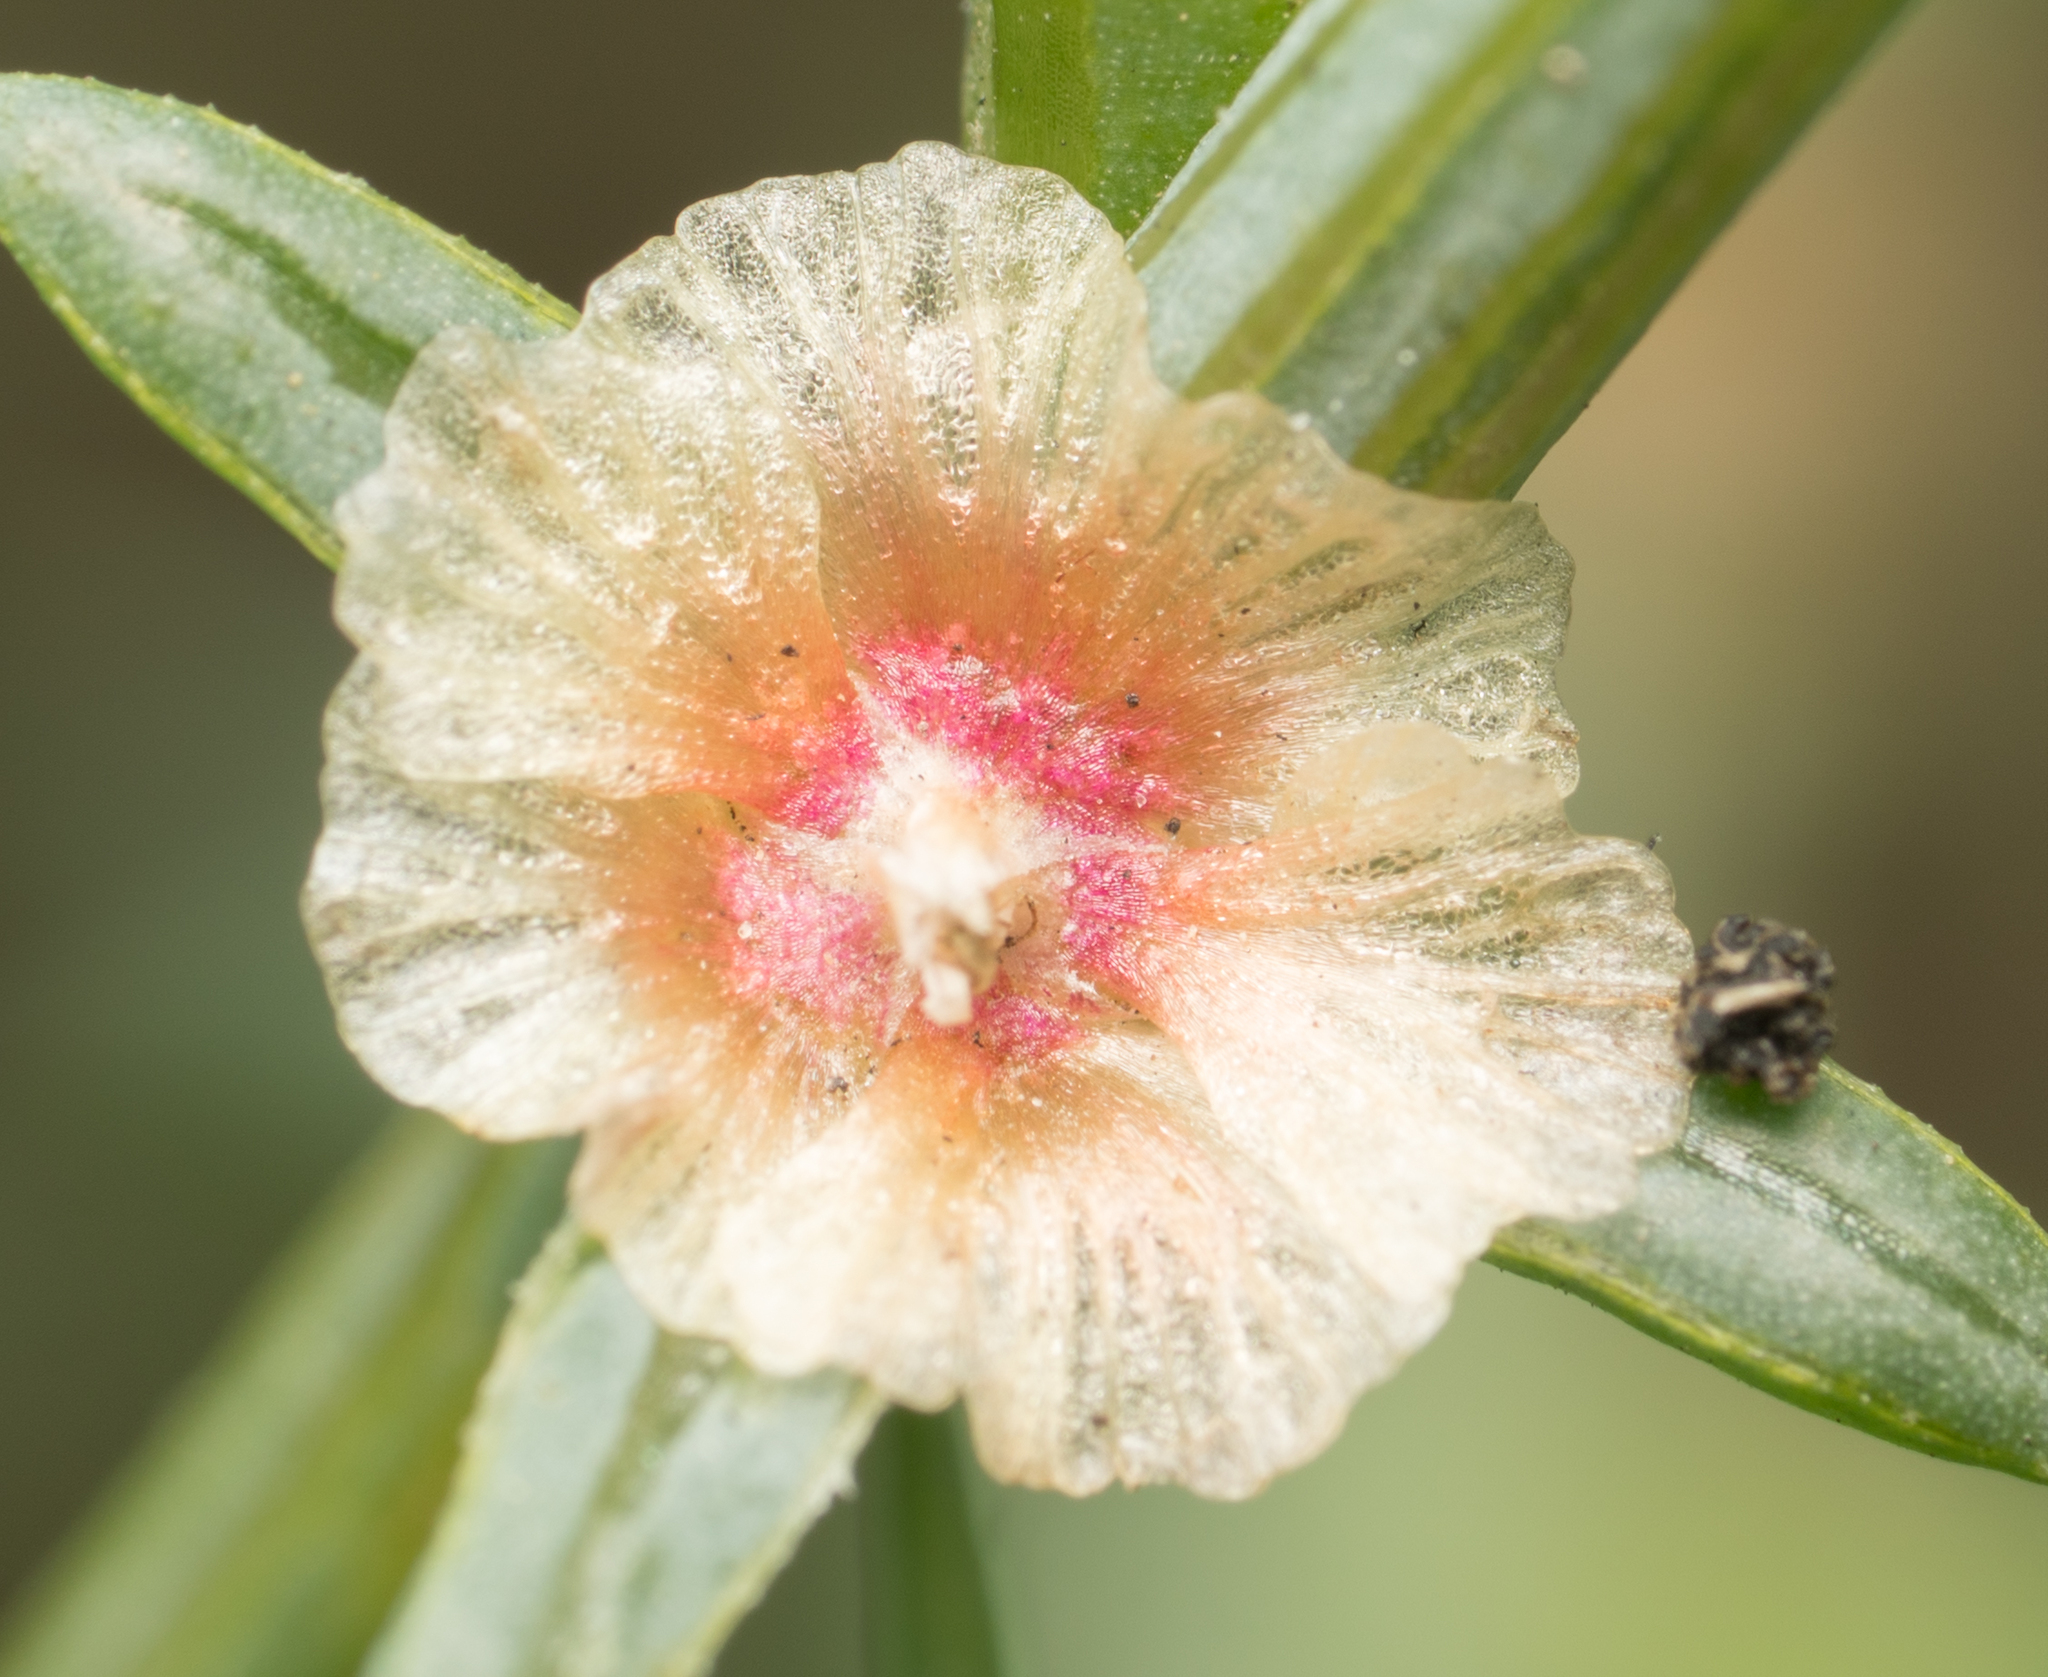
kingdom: Plantae
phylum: Tracheophyta
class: Magnoliopsida
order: Caryophyllales
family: Amaranthaceae
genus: Salsola
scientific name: Salsola australis
